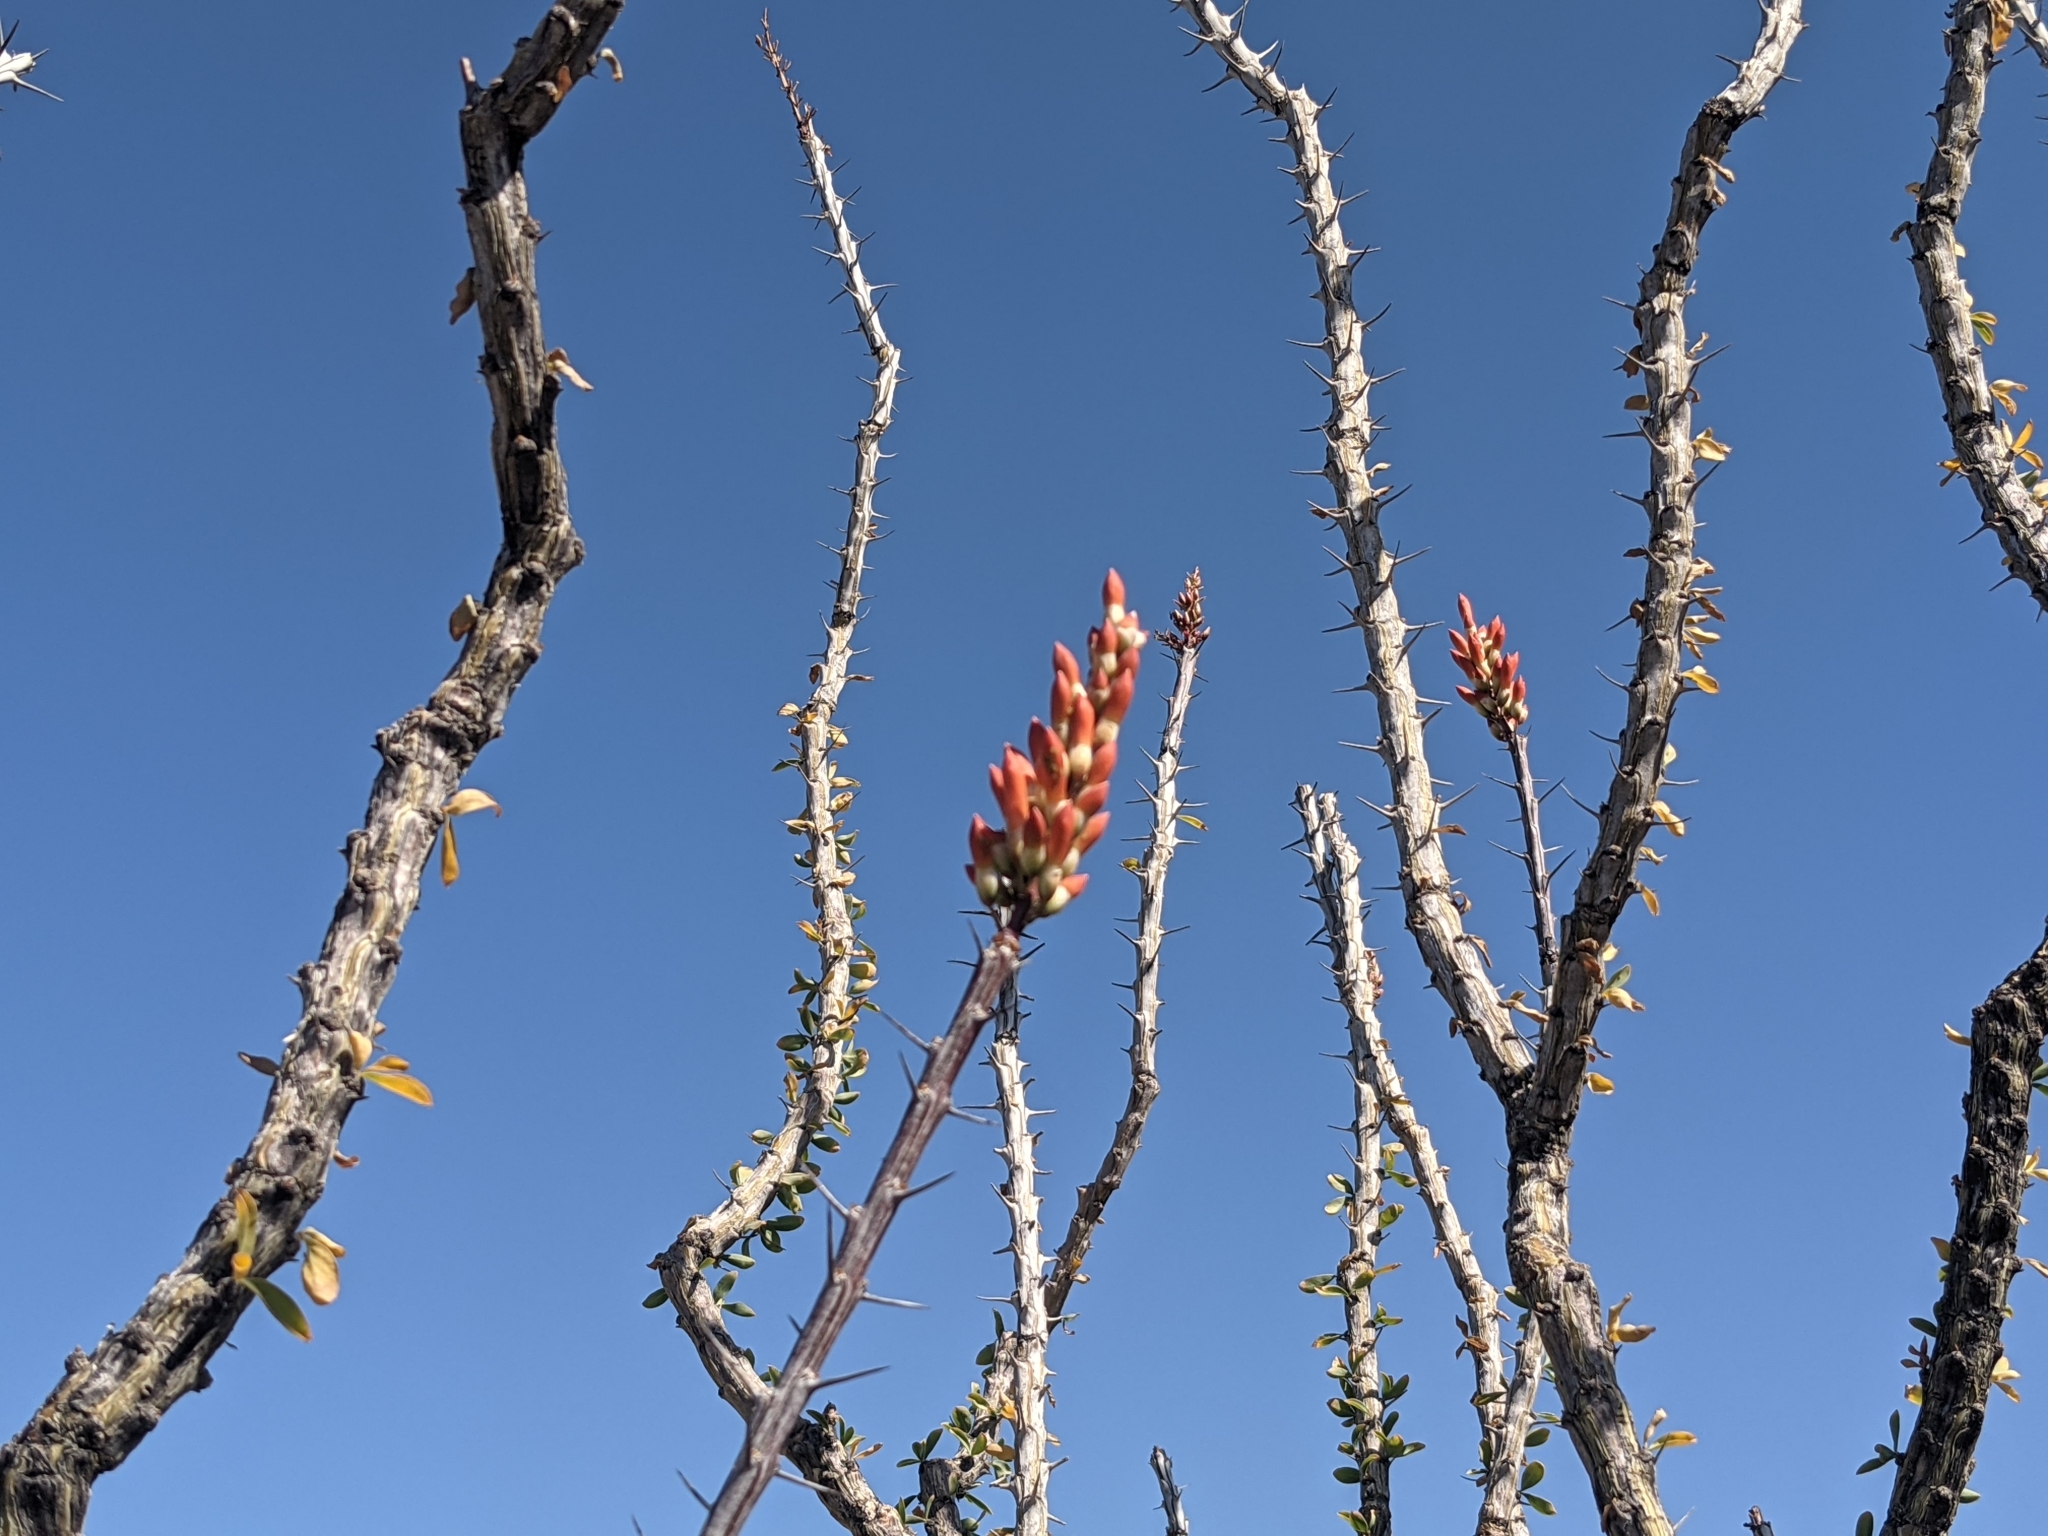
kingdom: Plantae
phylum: Tracheophyta
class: Magnoliopsida
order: Ericales
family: Fouquieriaceae
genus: Fouquieria
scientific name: Fouquieria splendens
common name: Vine-cactus
